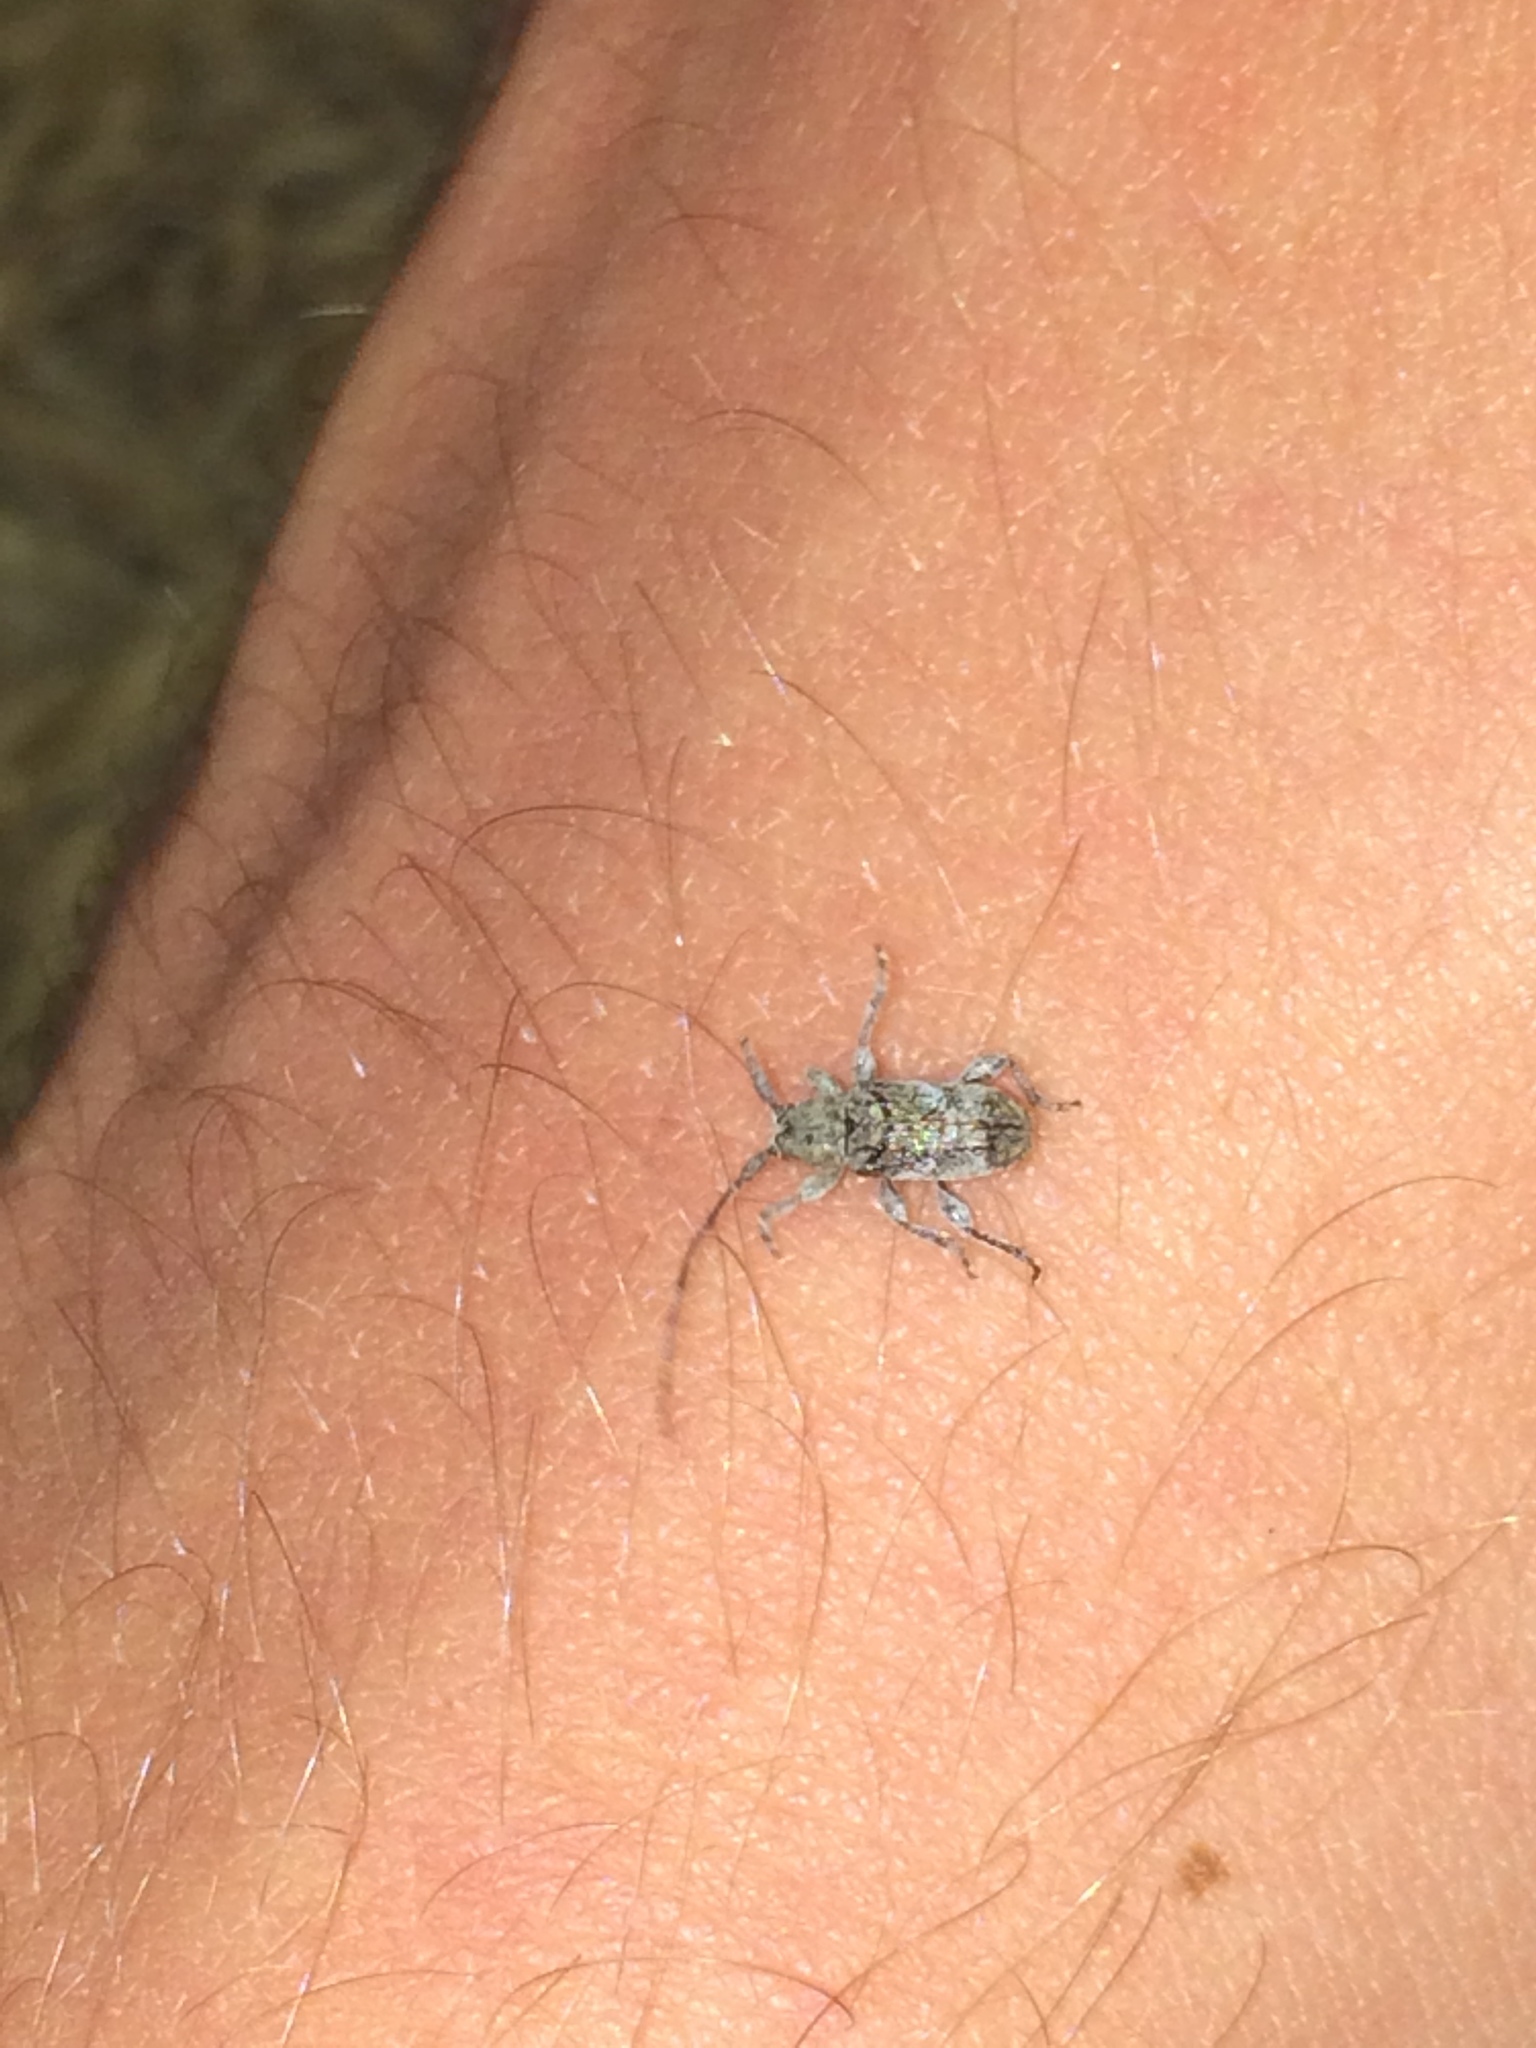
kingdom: Animalia
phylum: Arthropoda
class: Insecta
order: Coleoptera
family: Cerambycidae
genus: Ecyrus
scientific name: Ecyrus dasycerus
